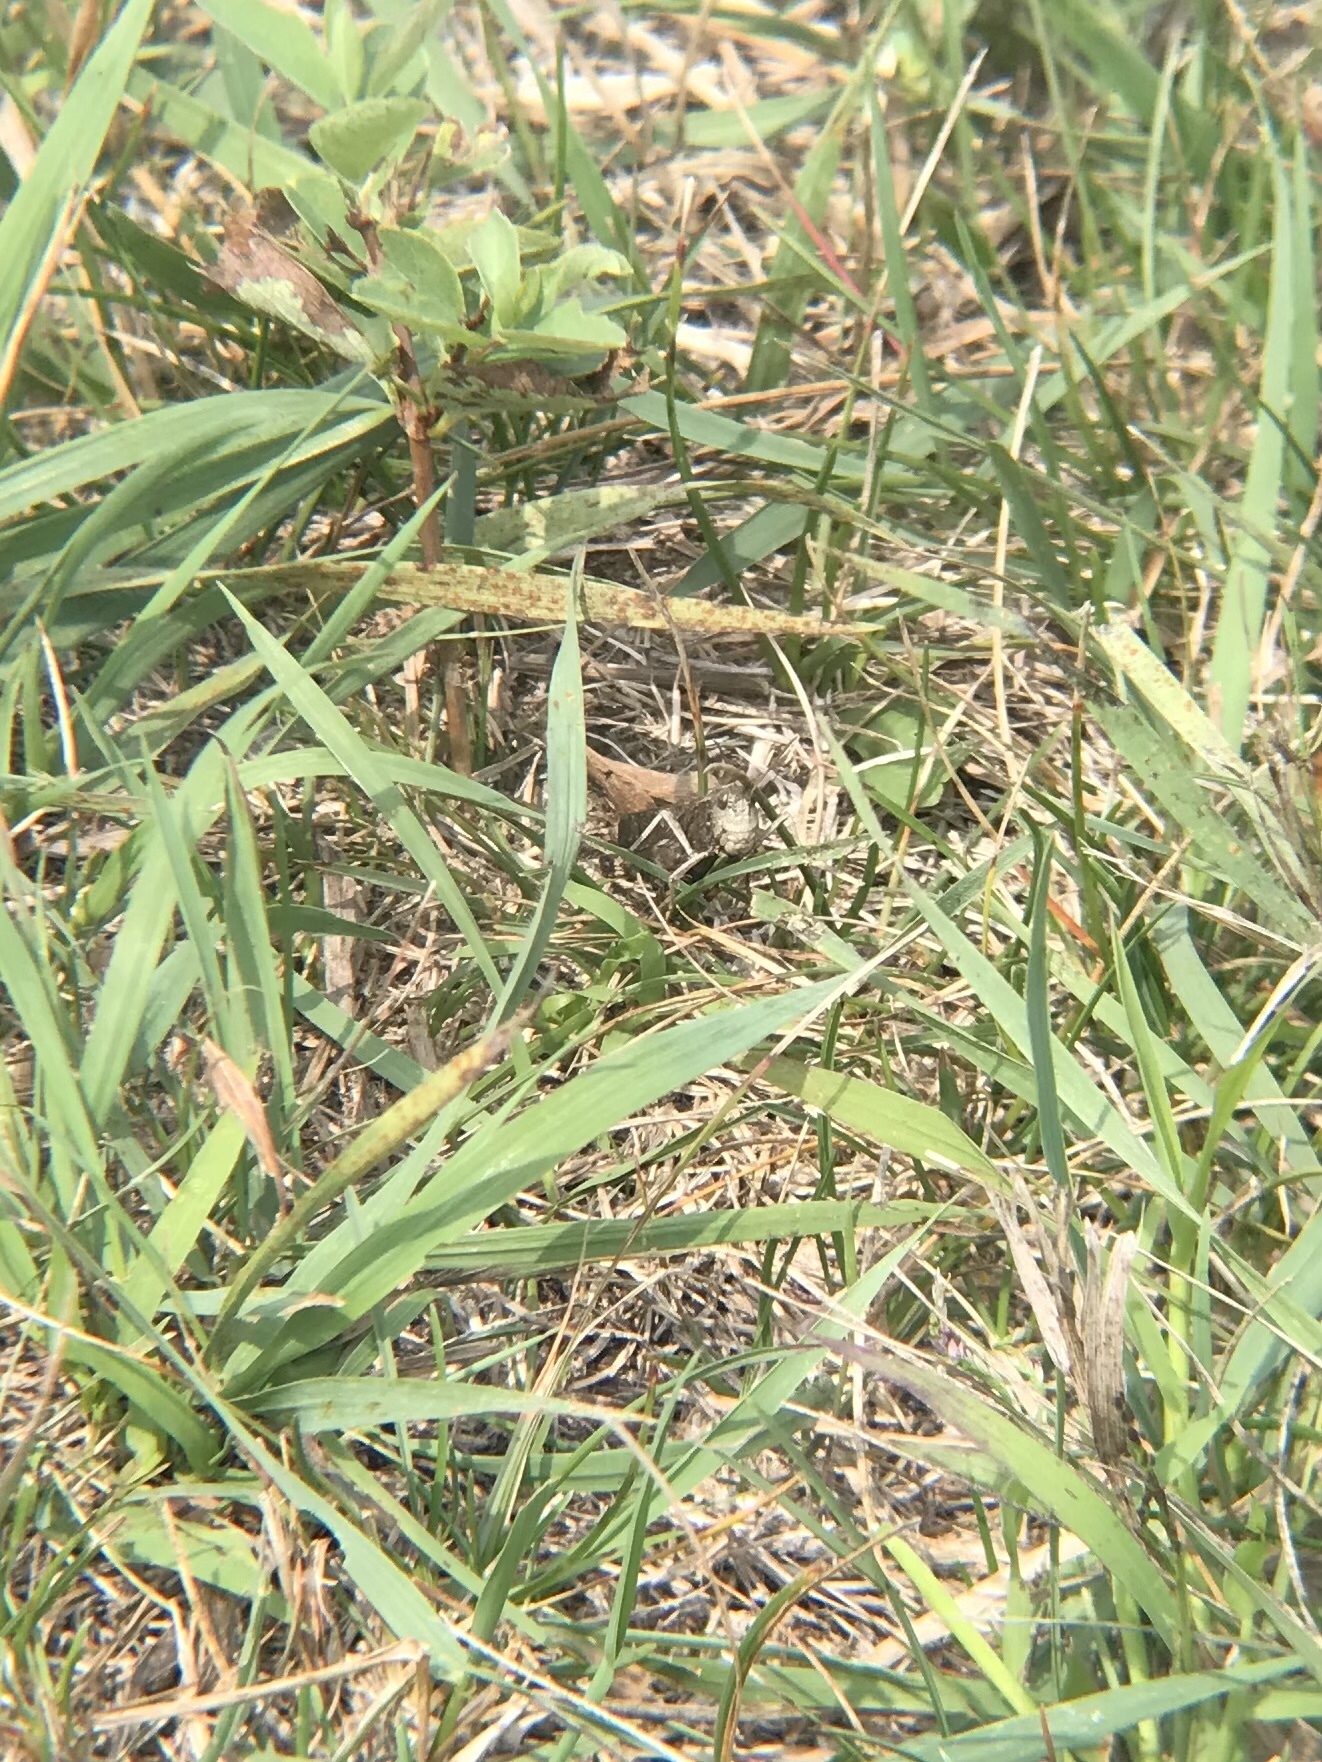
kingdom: Animalia
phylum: Arthropoda
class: Insecta
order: Orthoptera
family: Acrididae
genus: Arphia
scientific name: Arphia pseudo-nietana
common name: Red-winged grasshopper
